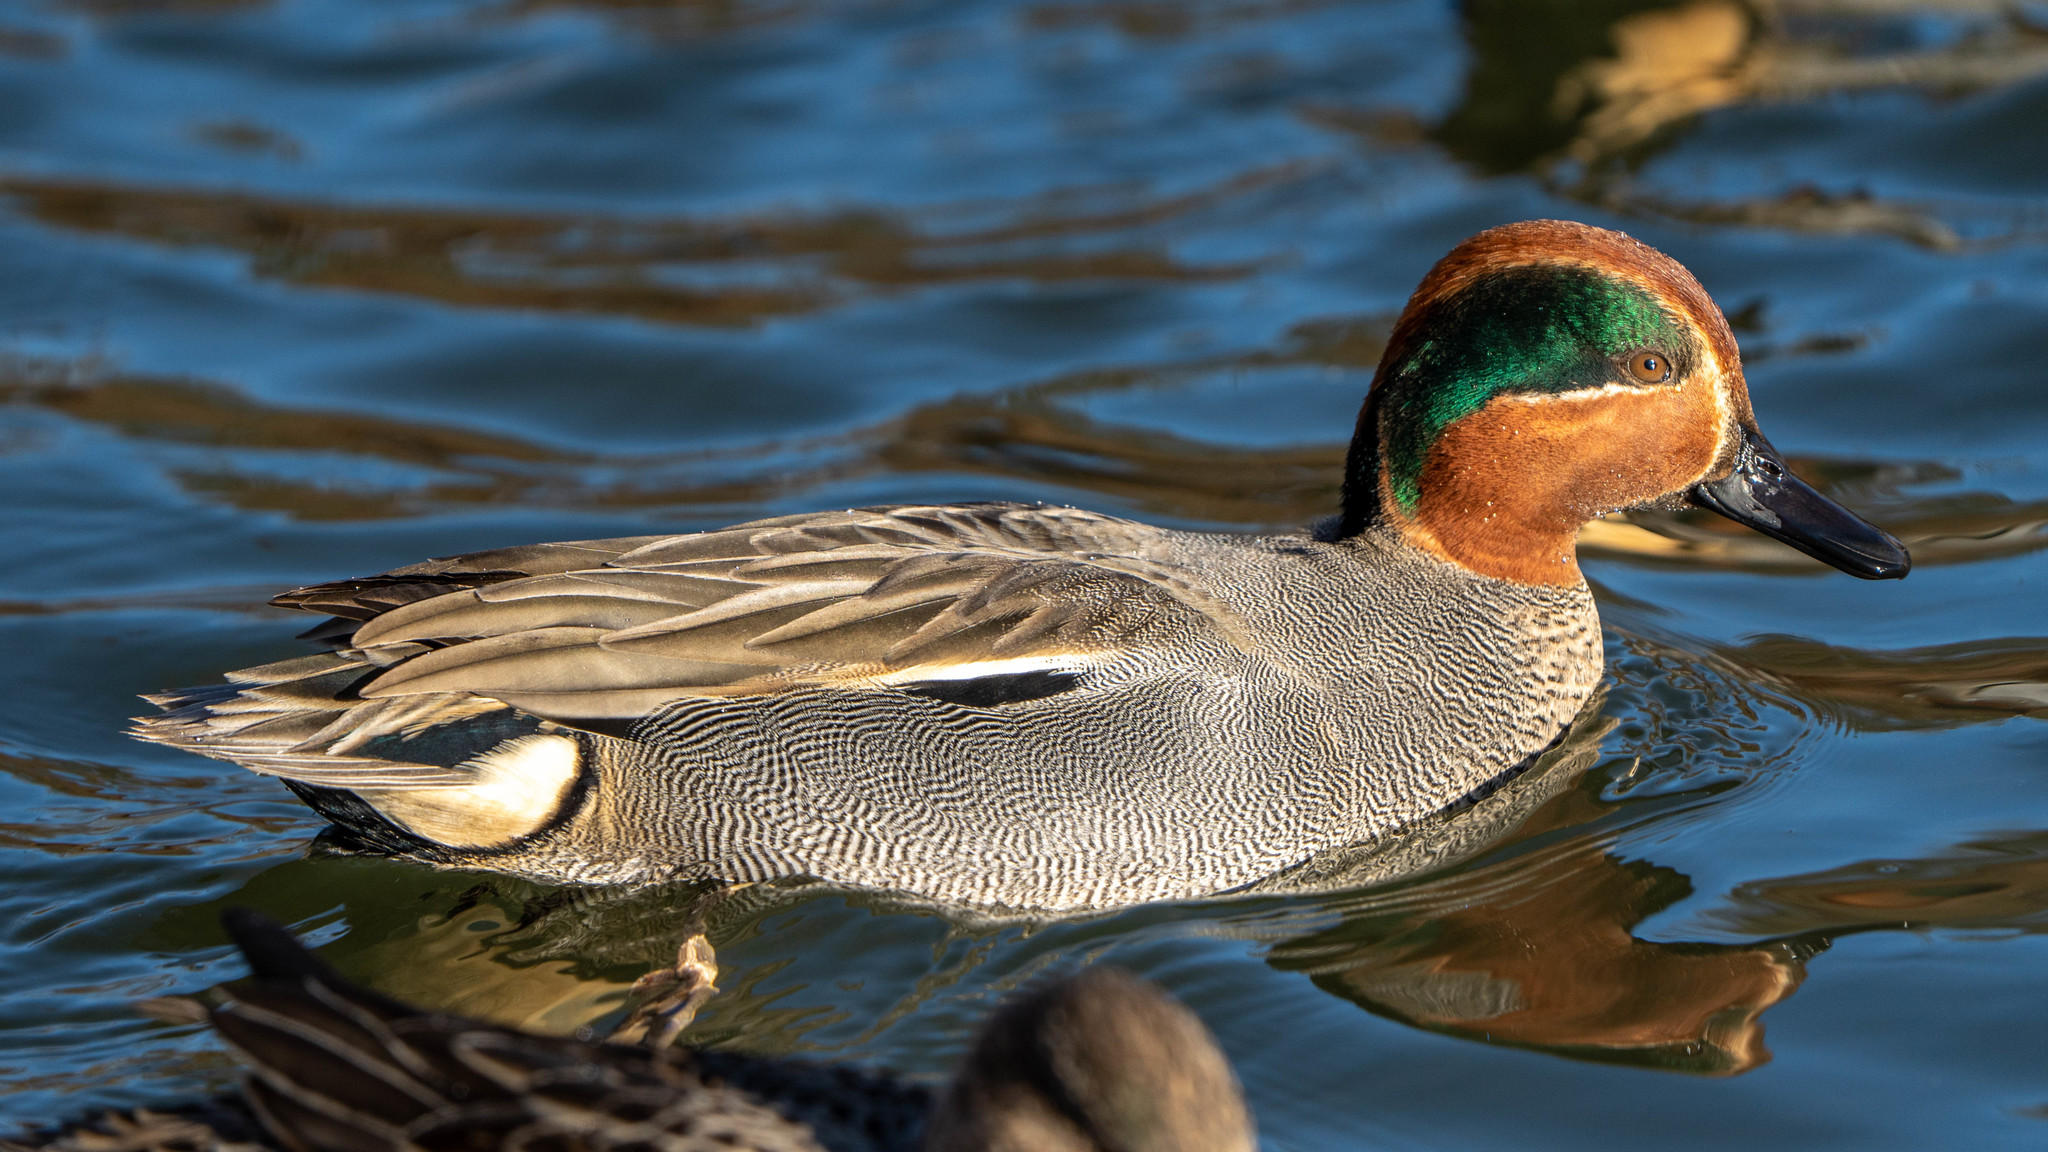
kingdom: Animalia
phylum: Chordata
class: Aves
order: Anseriformes
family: Anatidae
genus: Anas
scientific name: Anas crecca
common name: Eurasian teal
